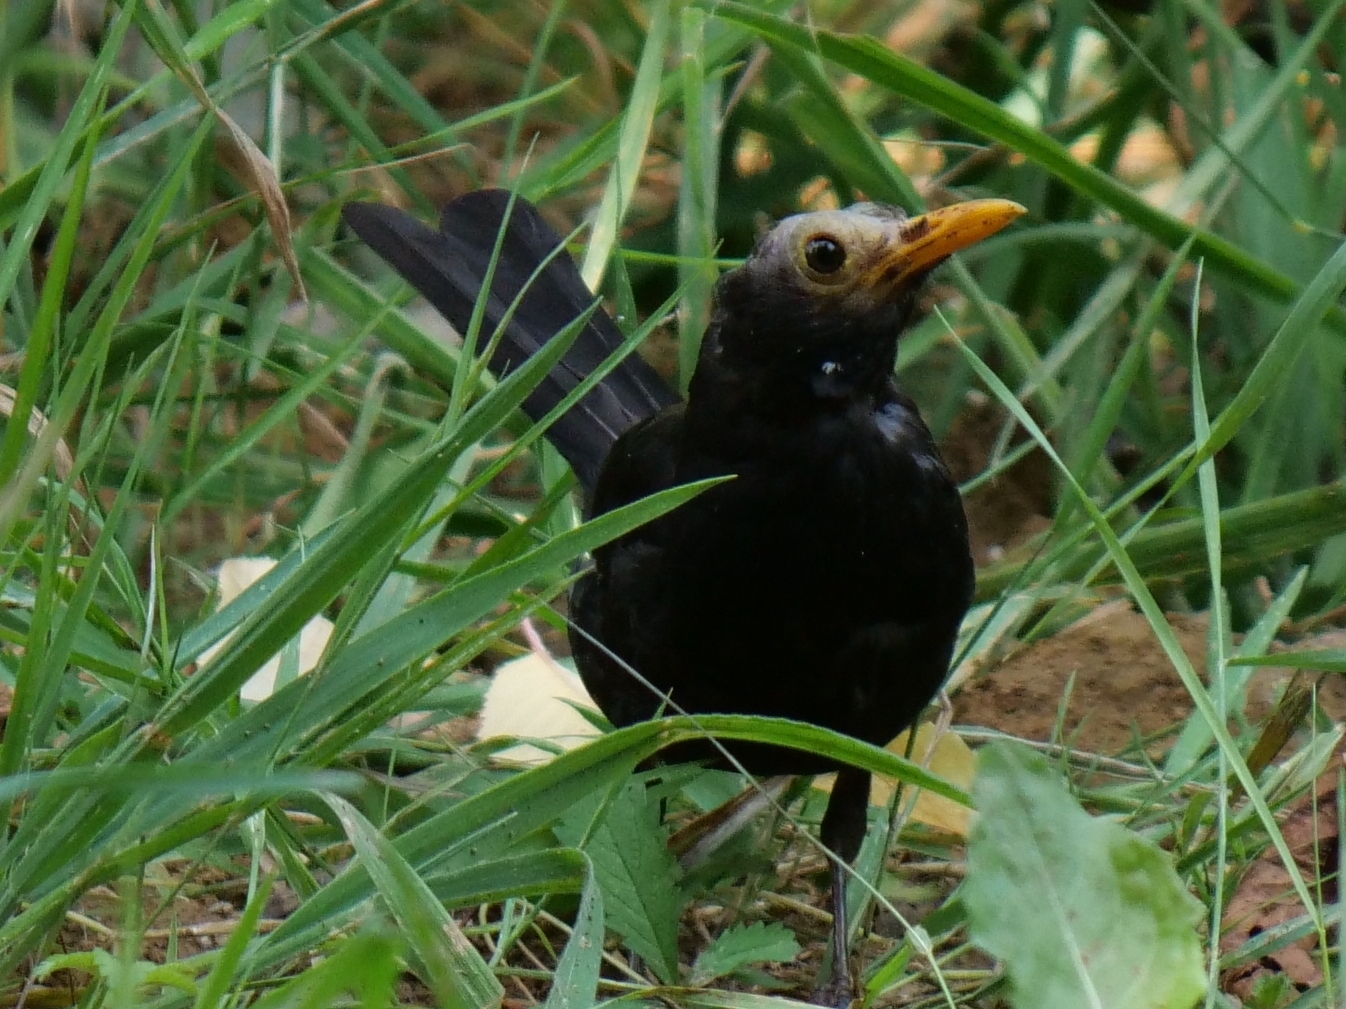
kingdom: Animalia
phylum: Chordata
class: Aves
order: Passeriformes
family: Turdidae
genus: Turdus
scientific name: Turdus merula
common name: Common blackbird
